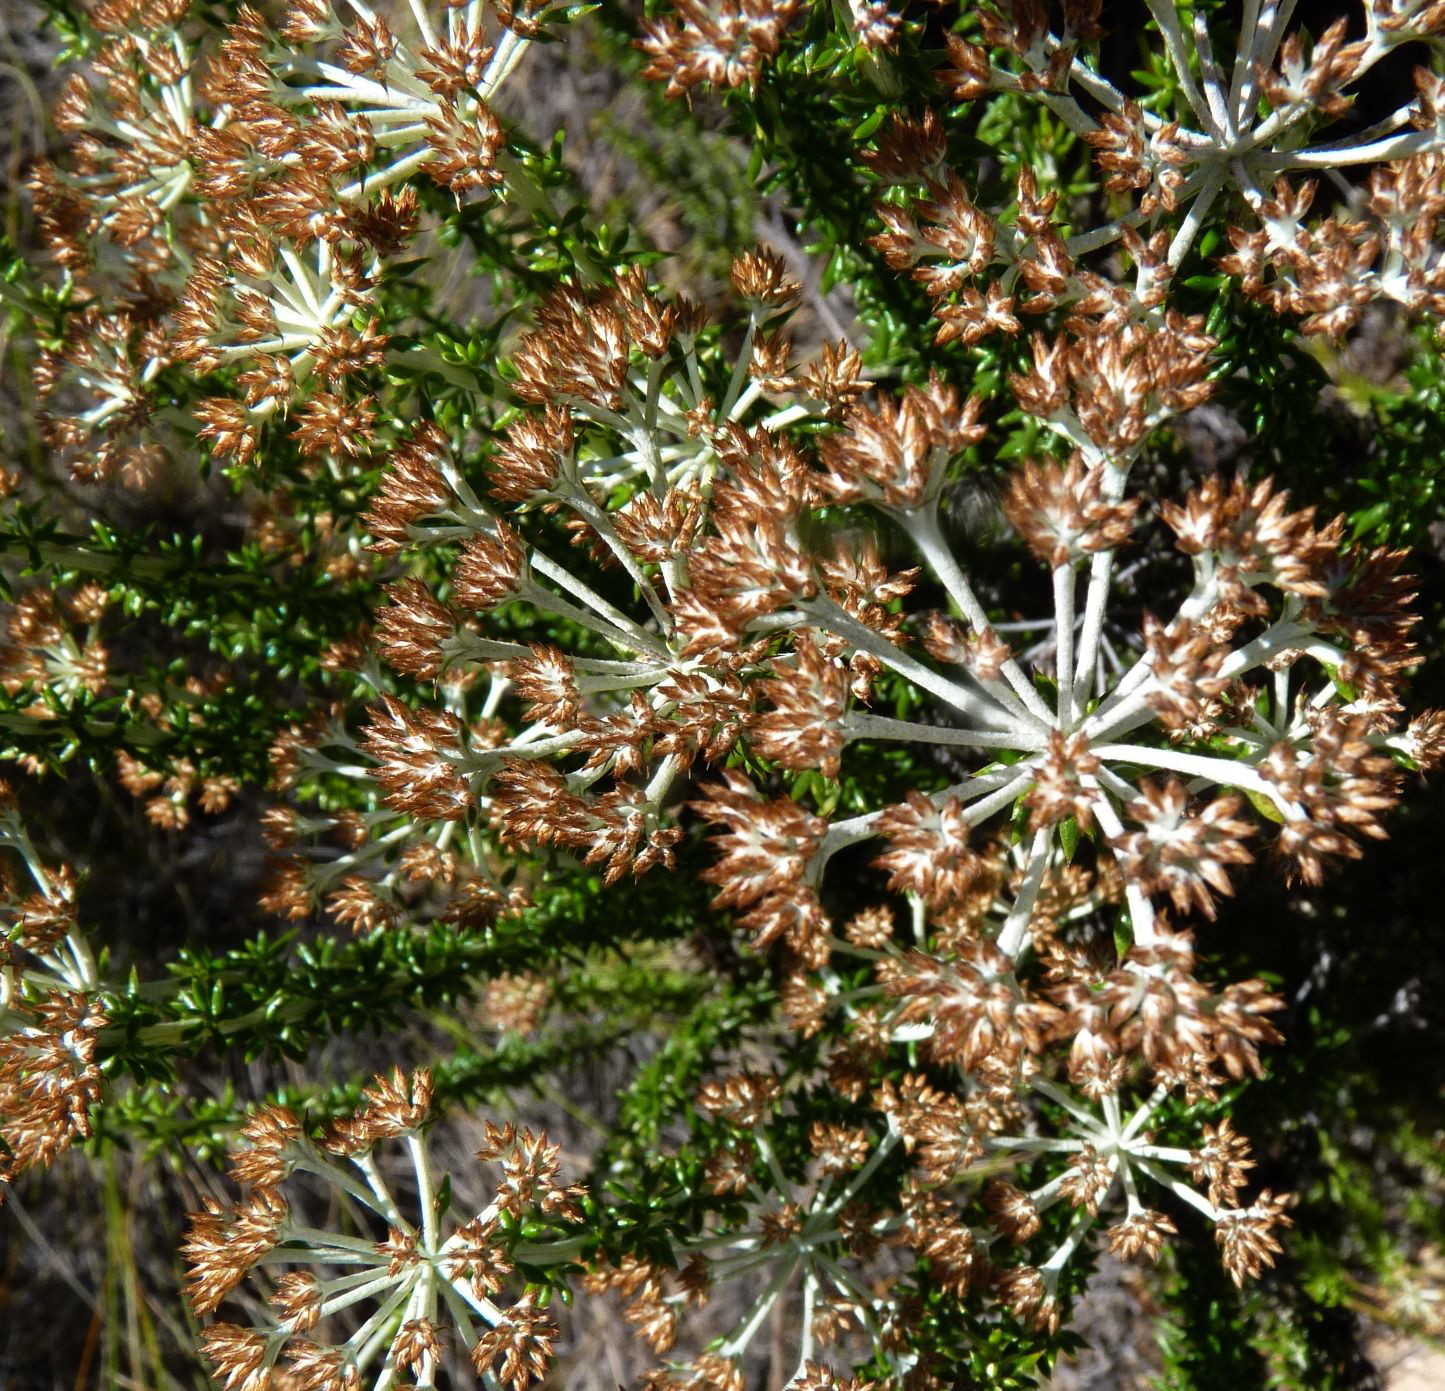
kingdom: Plantae
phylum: Tracheophyta
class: Magnoliopsida
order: Asterales
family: Asteraceae
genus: Metalasia
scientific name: Metalasia densa
